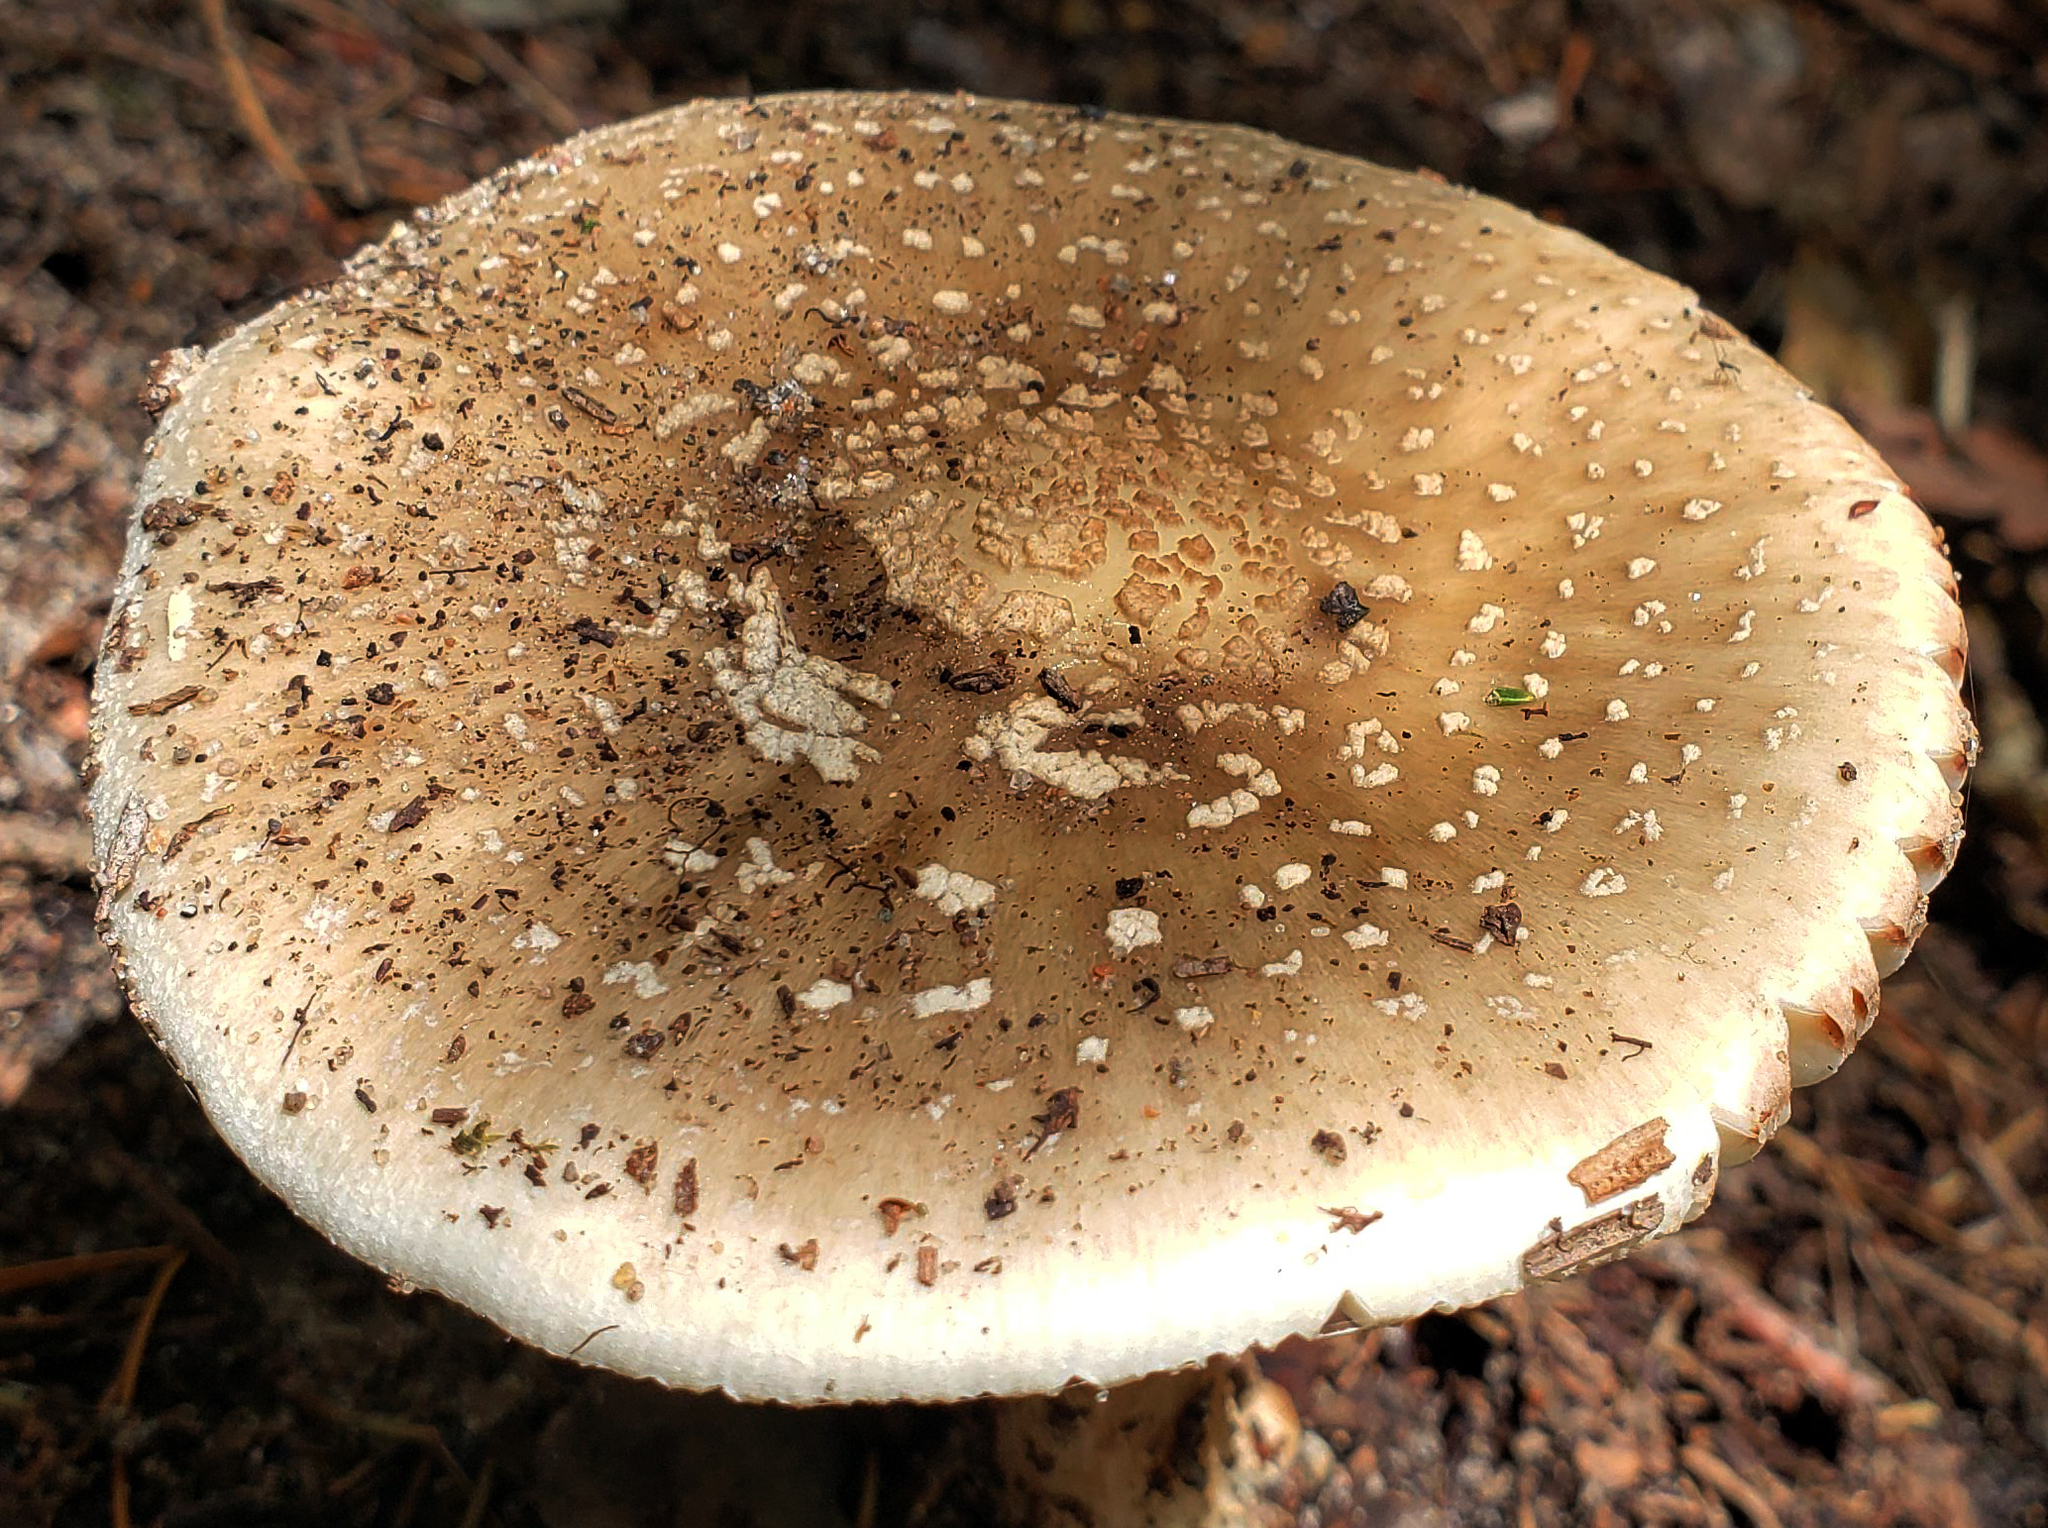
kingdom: Fungi
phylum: Basidiomycota
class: Agaricomycetes
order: Agaricales
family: Amanitaceae
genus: Amanita
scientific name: Amanita brunnescens
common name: Brown american star-footed amanita
